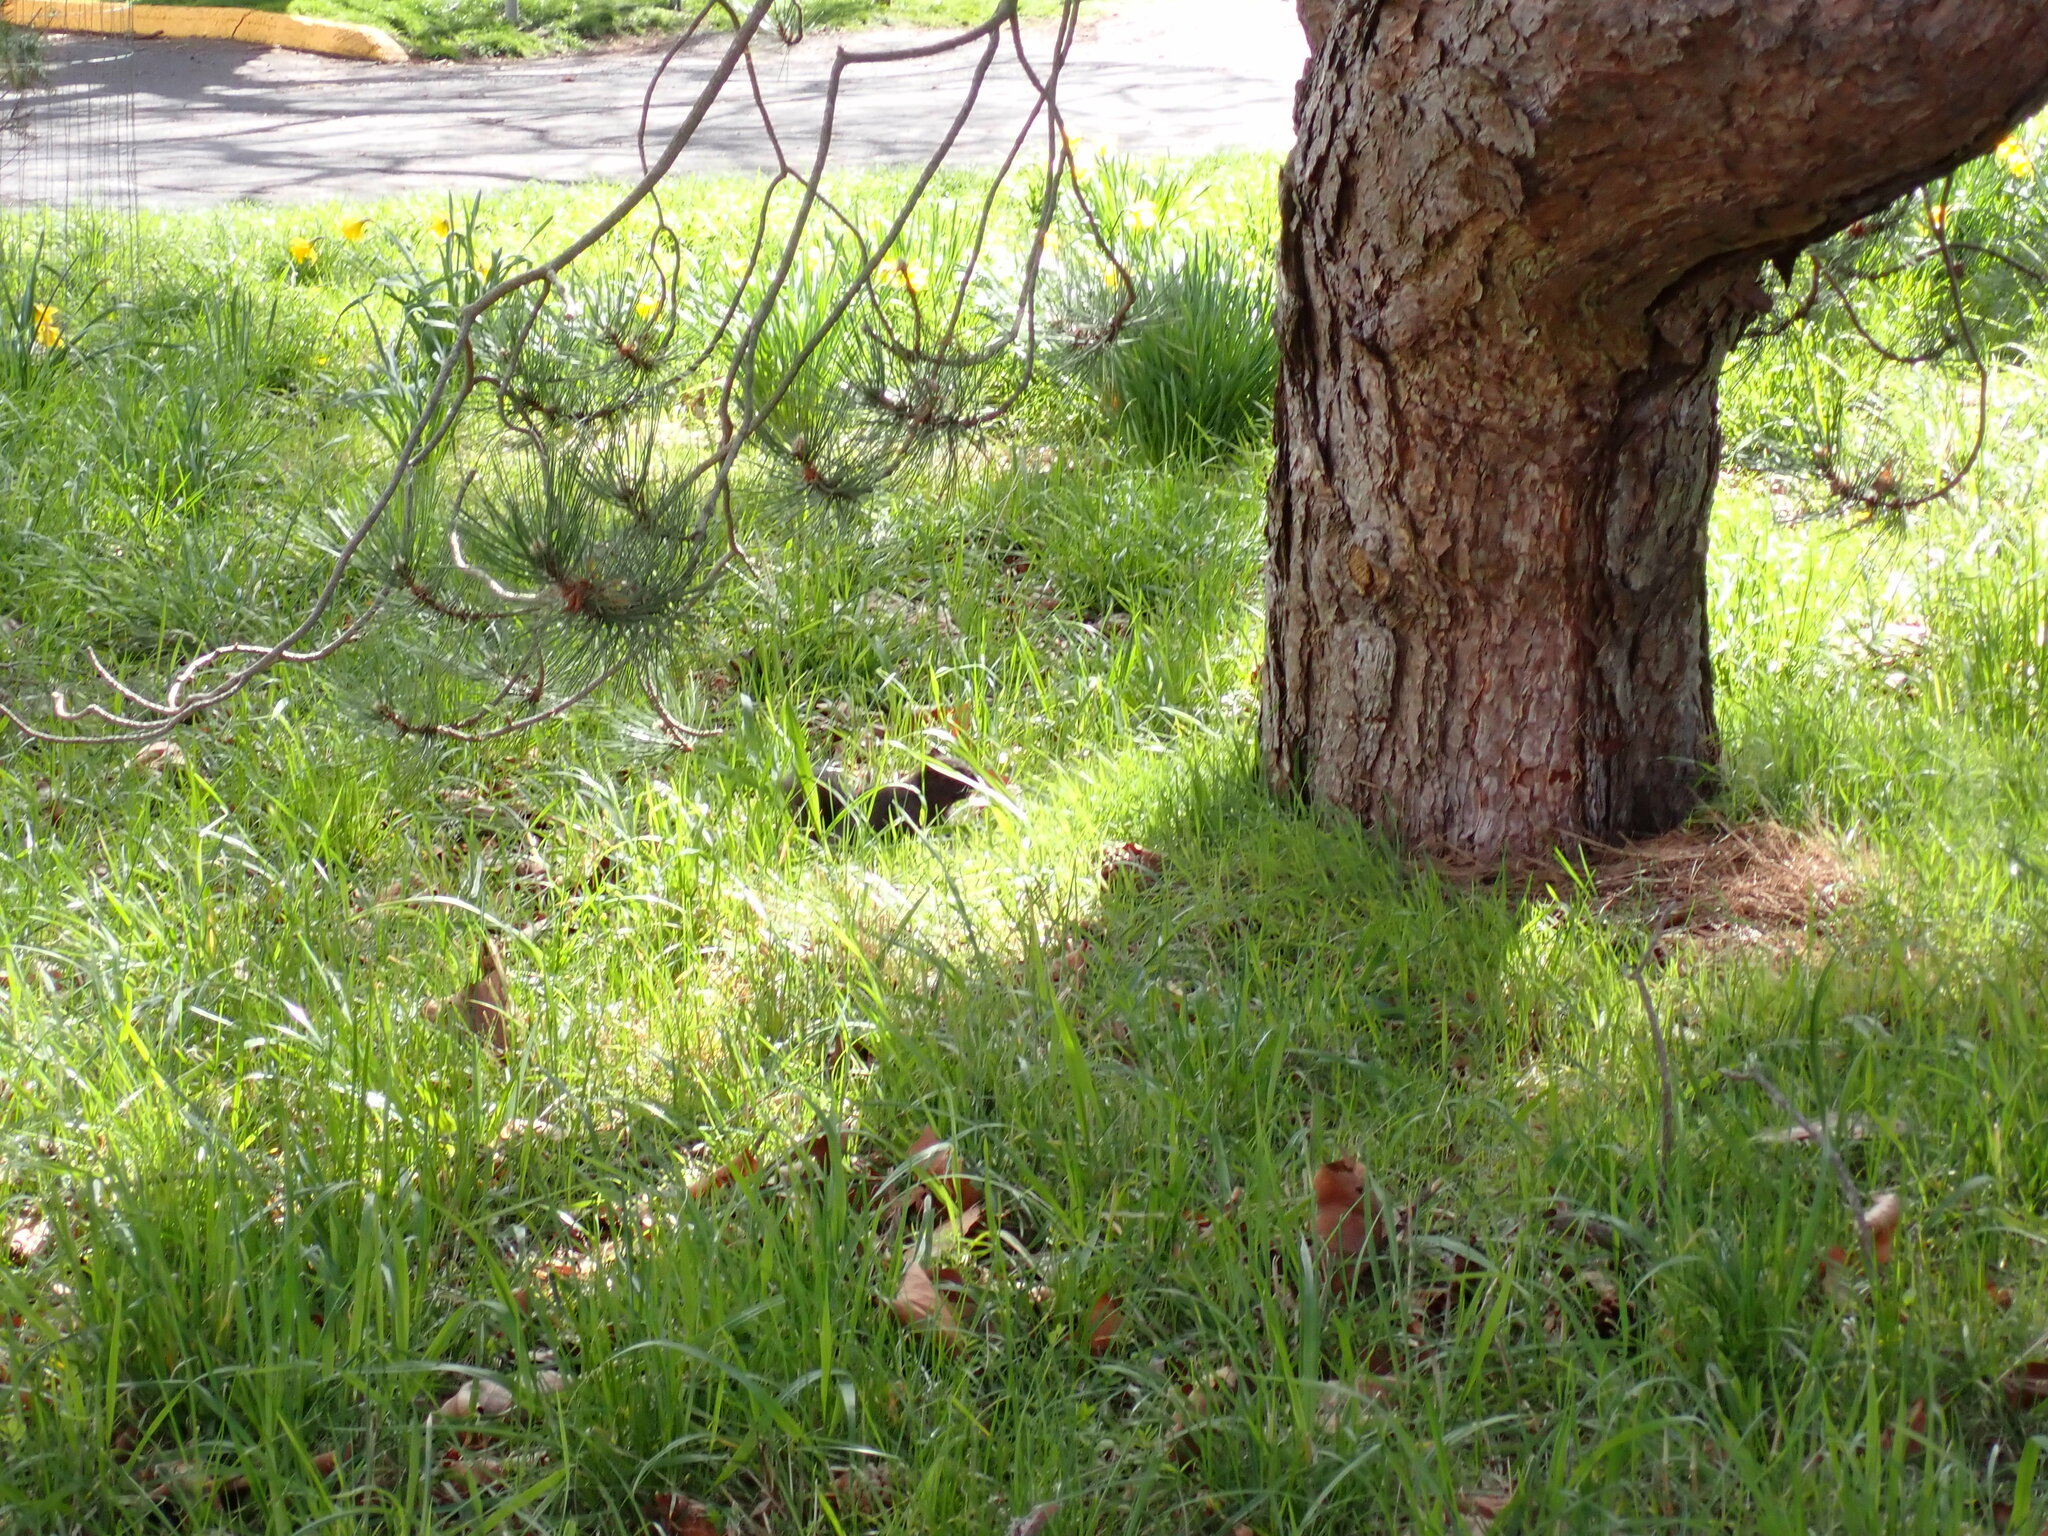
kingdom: Animalia
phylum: Chordata
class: Mammalia
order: Rodentia
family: Sciuridae
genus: Sciurus
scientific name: Sciurus carolinensis
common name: Eastern gray squirrel
